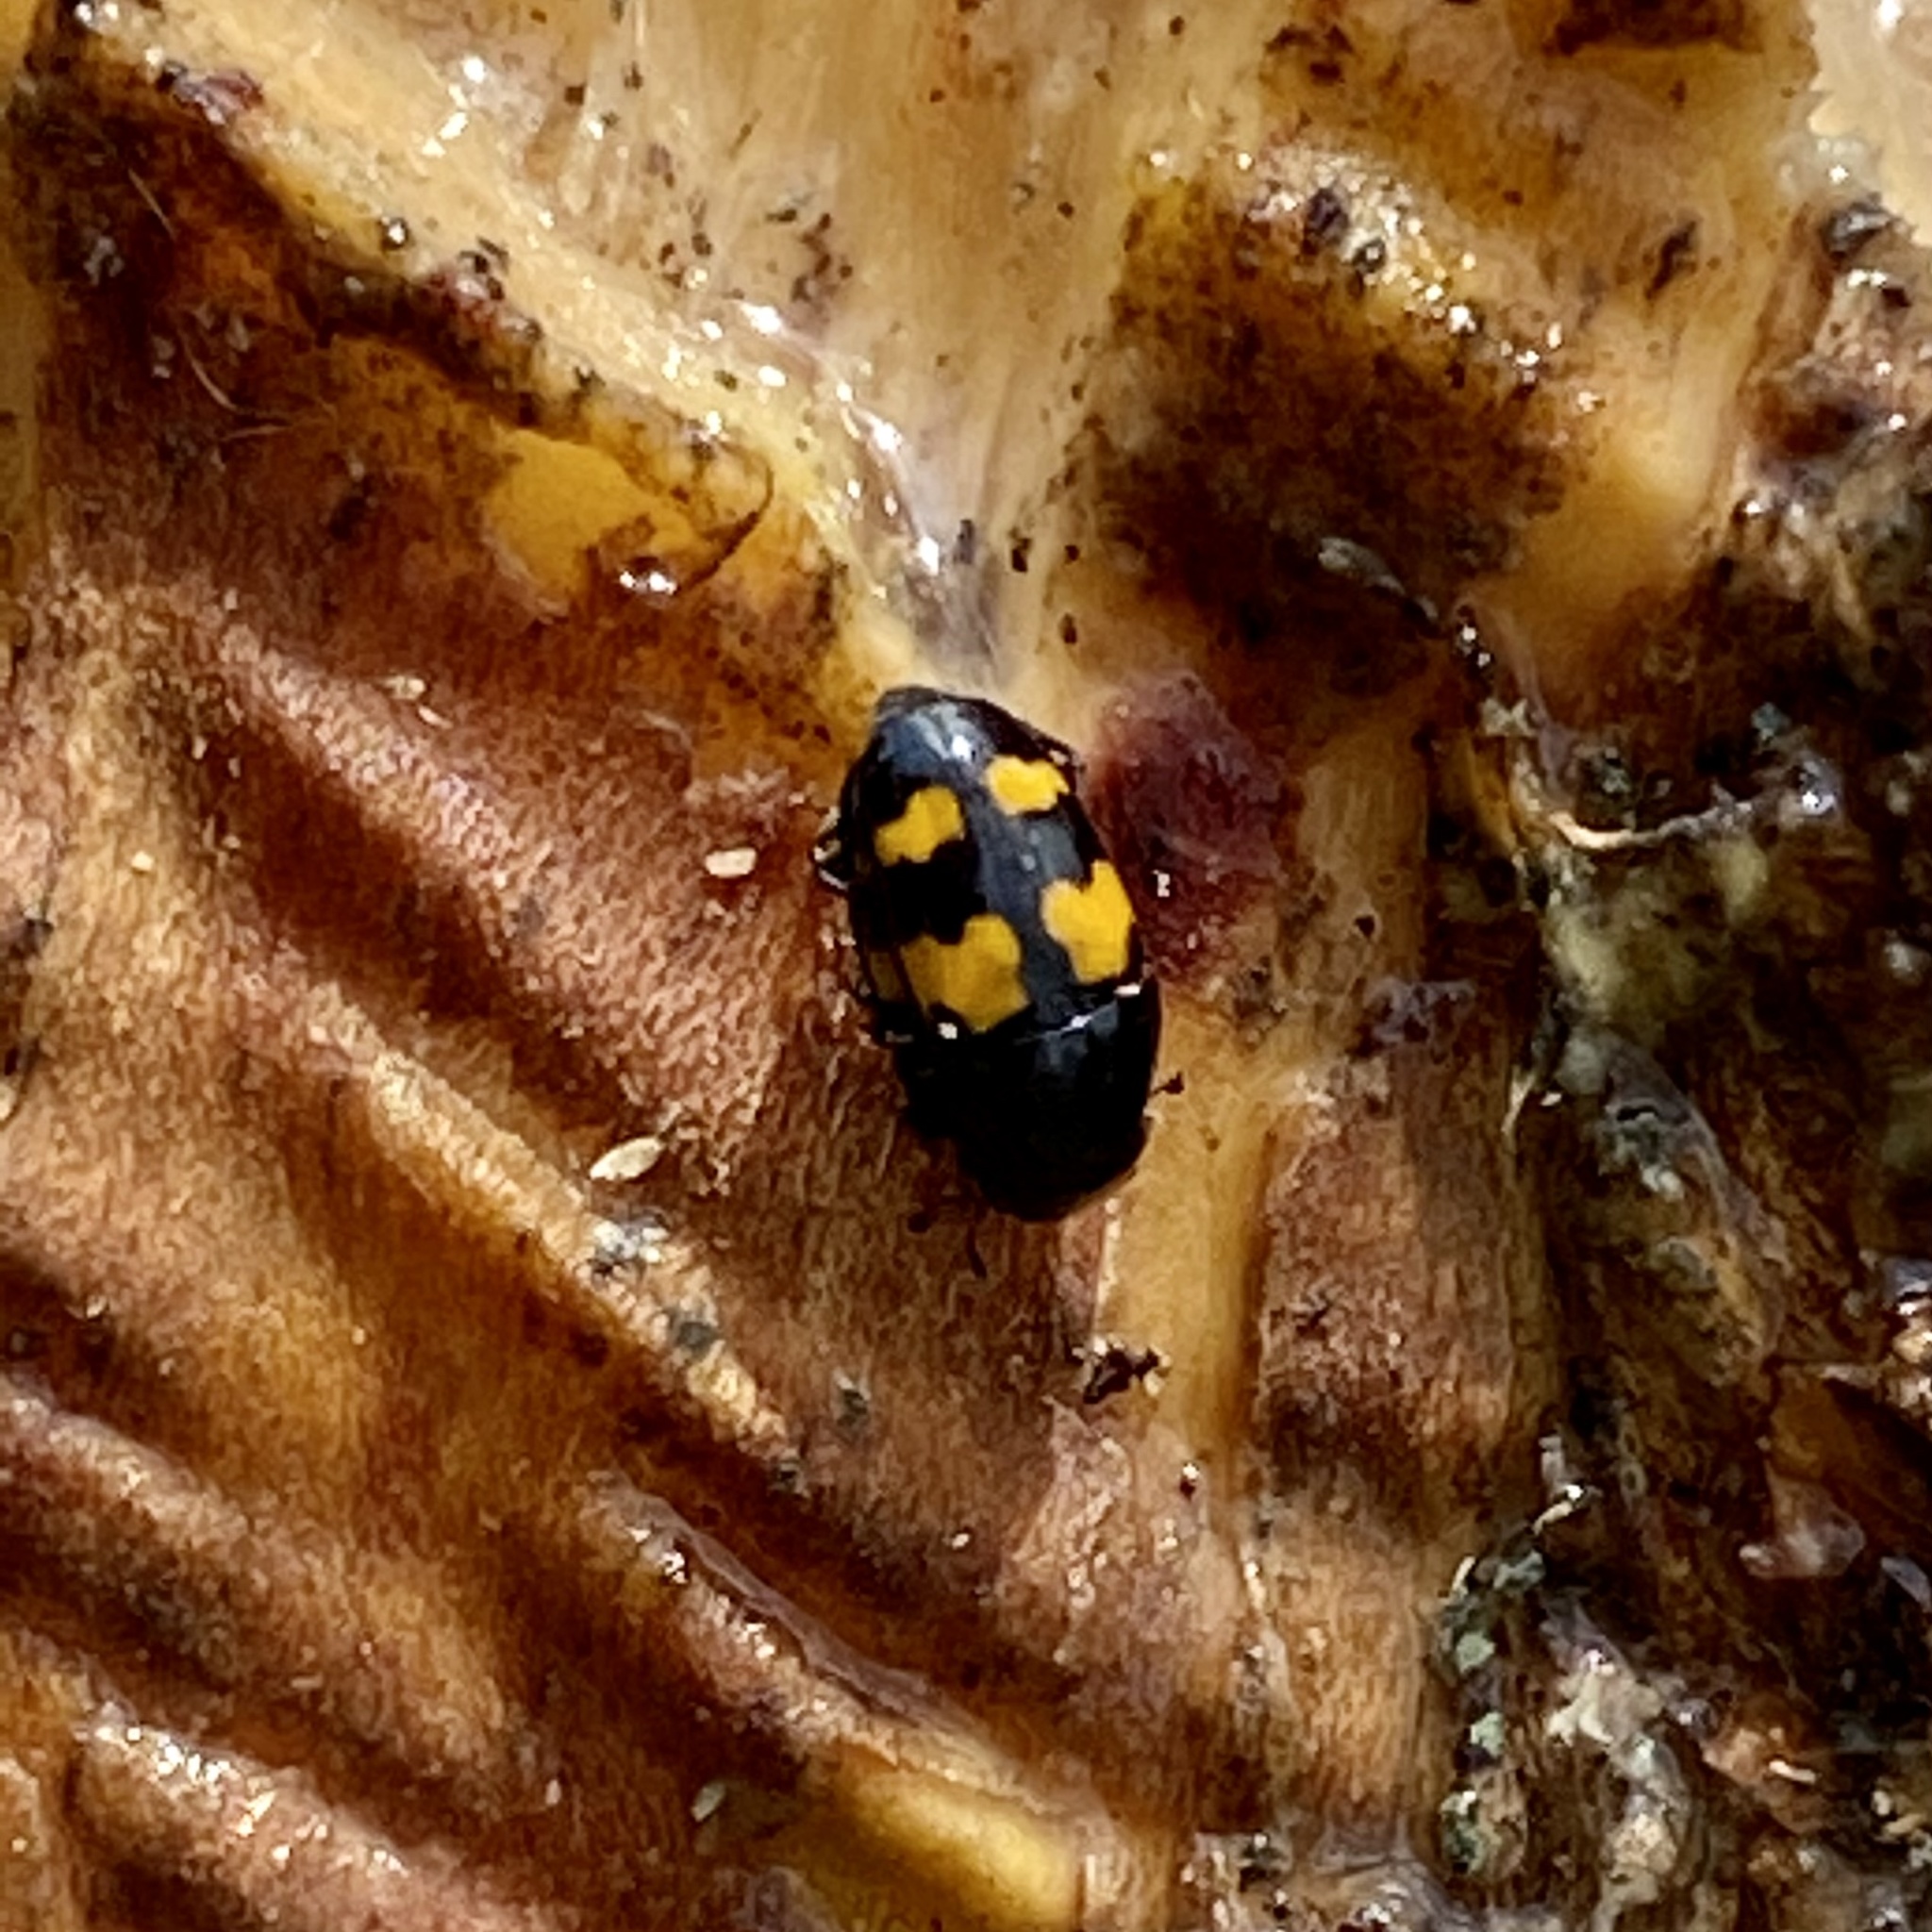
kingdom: Animalia
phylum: Arthropoda
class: Insecta
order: Coleoptera
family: Nitidulidae
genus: Glischrochilus
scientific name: Glischrochilus fasciatus
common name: Picnic beetle
